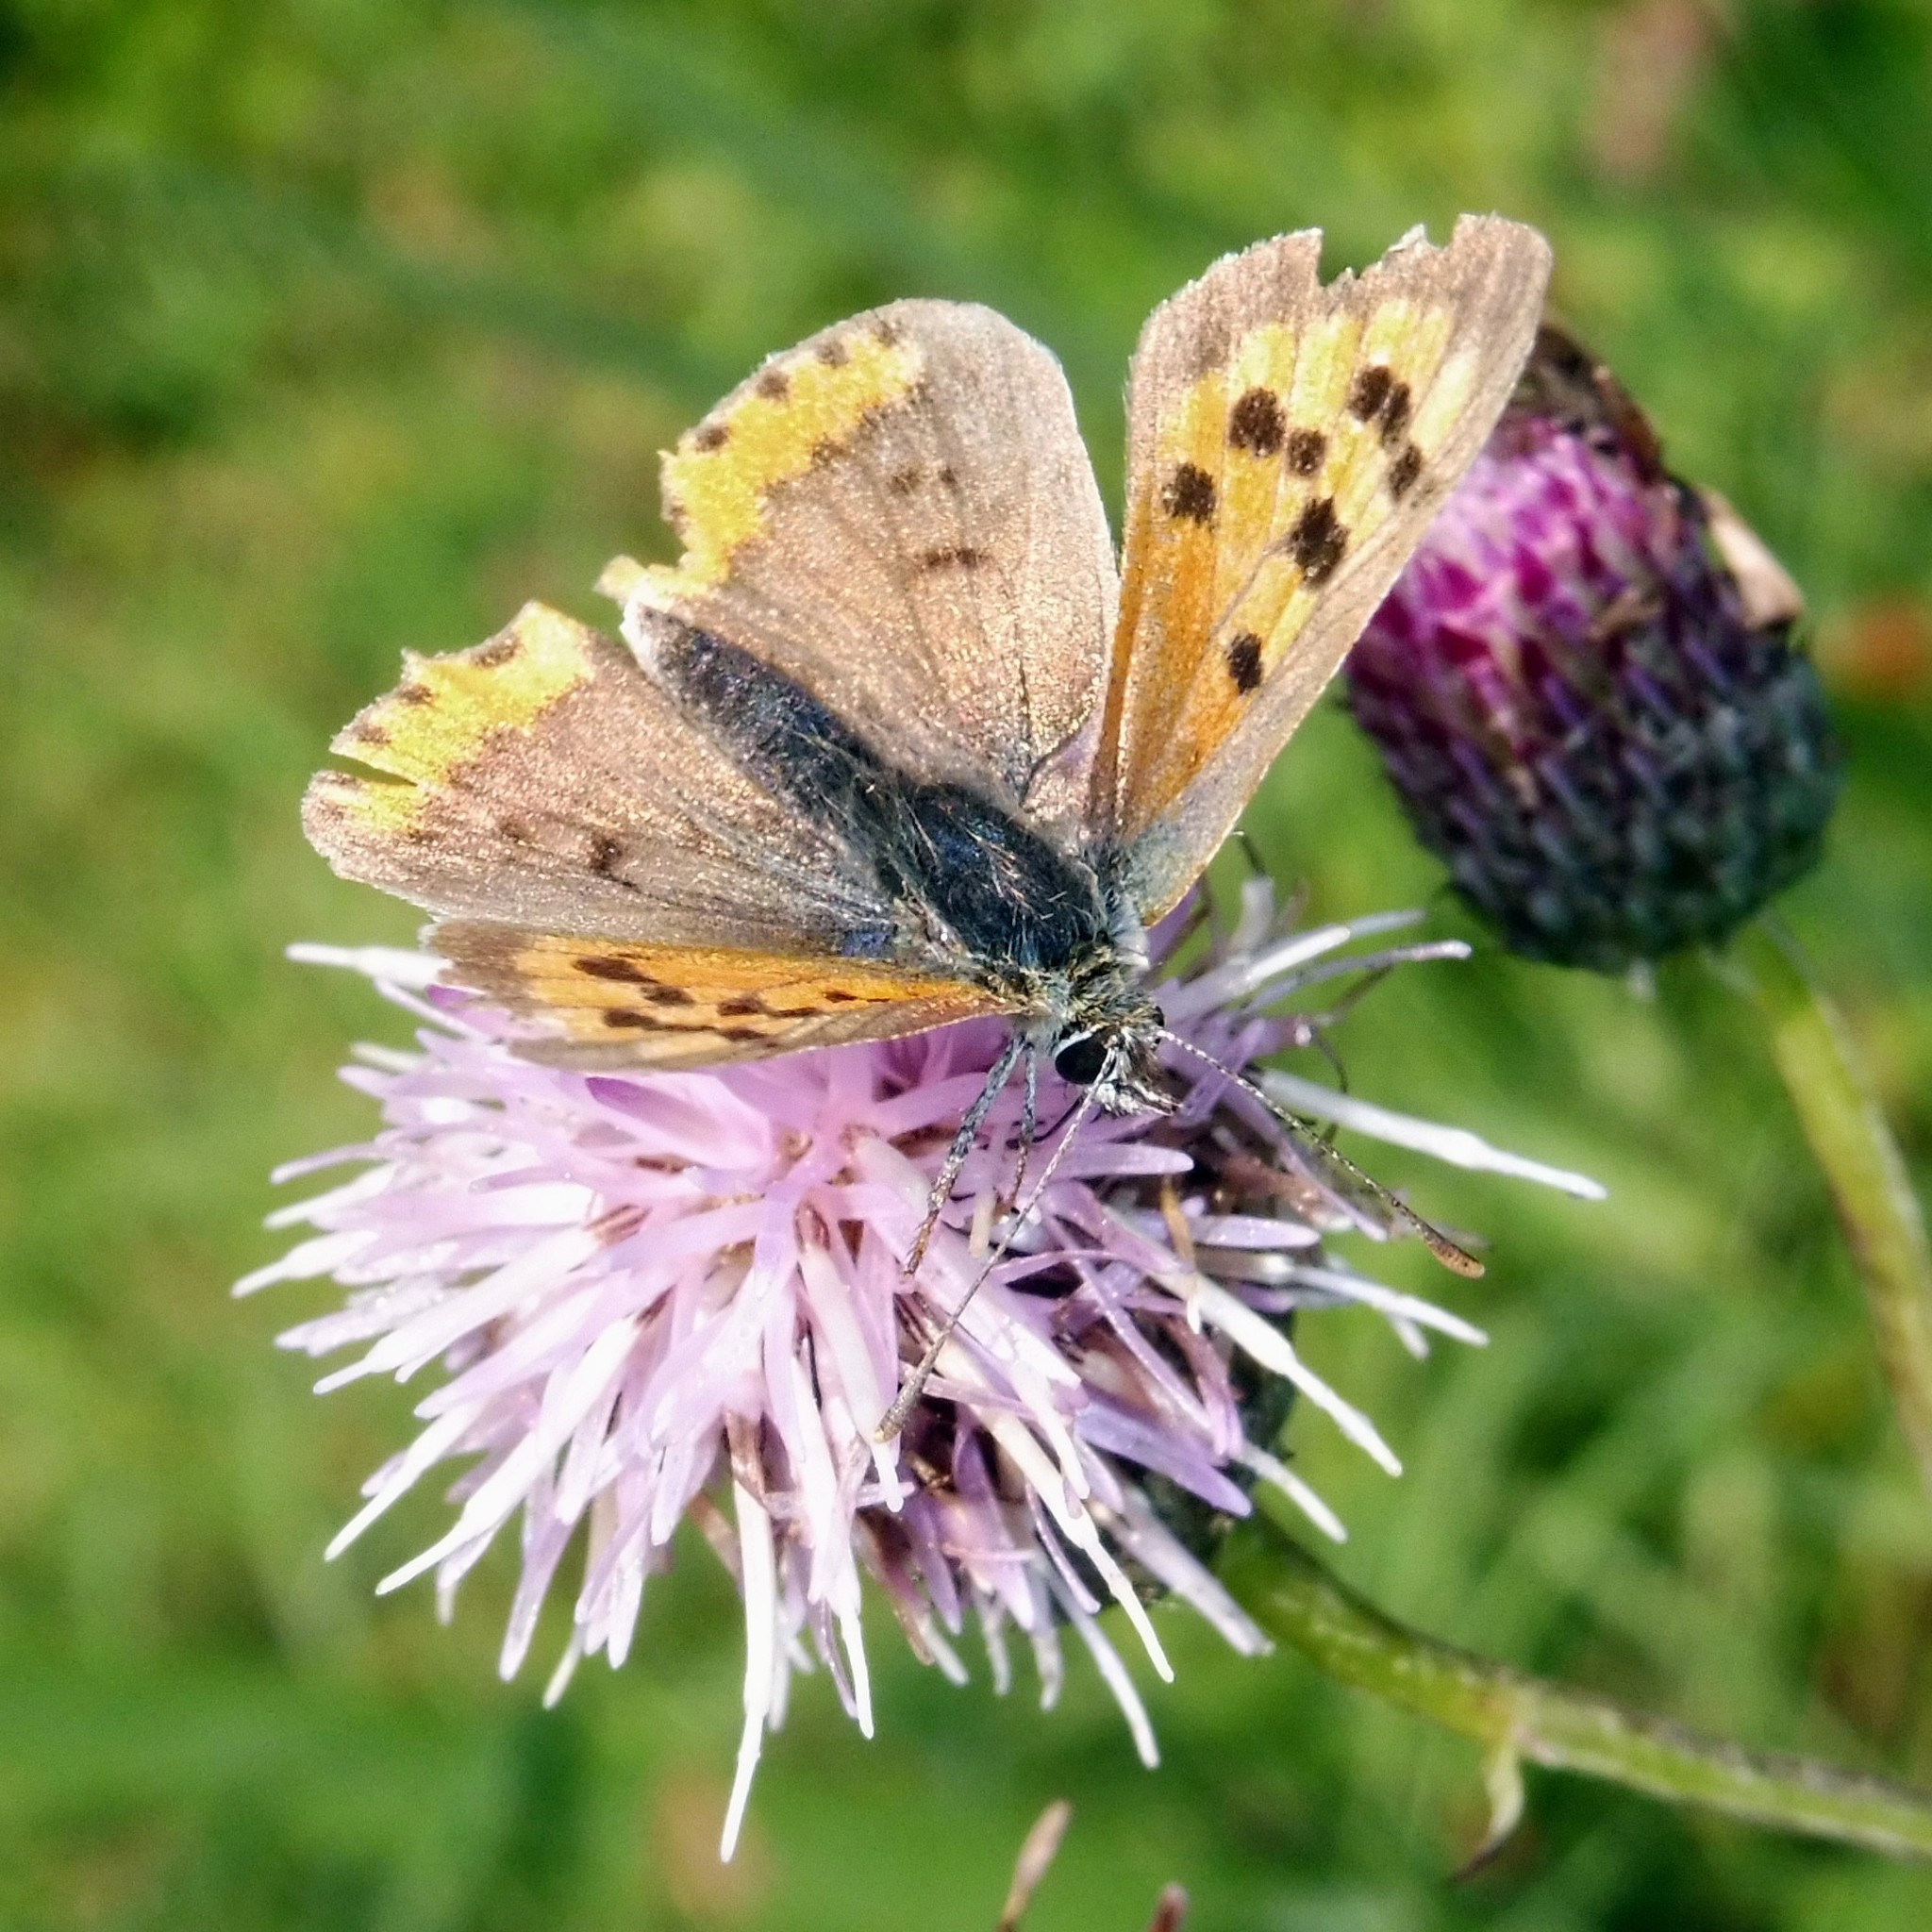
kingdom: Animalia
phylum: Arthropoda
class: Insecta
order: Lepidoptera
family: Lycaenidae
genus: Lycaena
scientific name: Lycaena phlaeas
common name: Small copper
